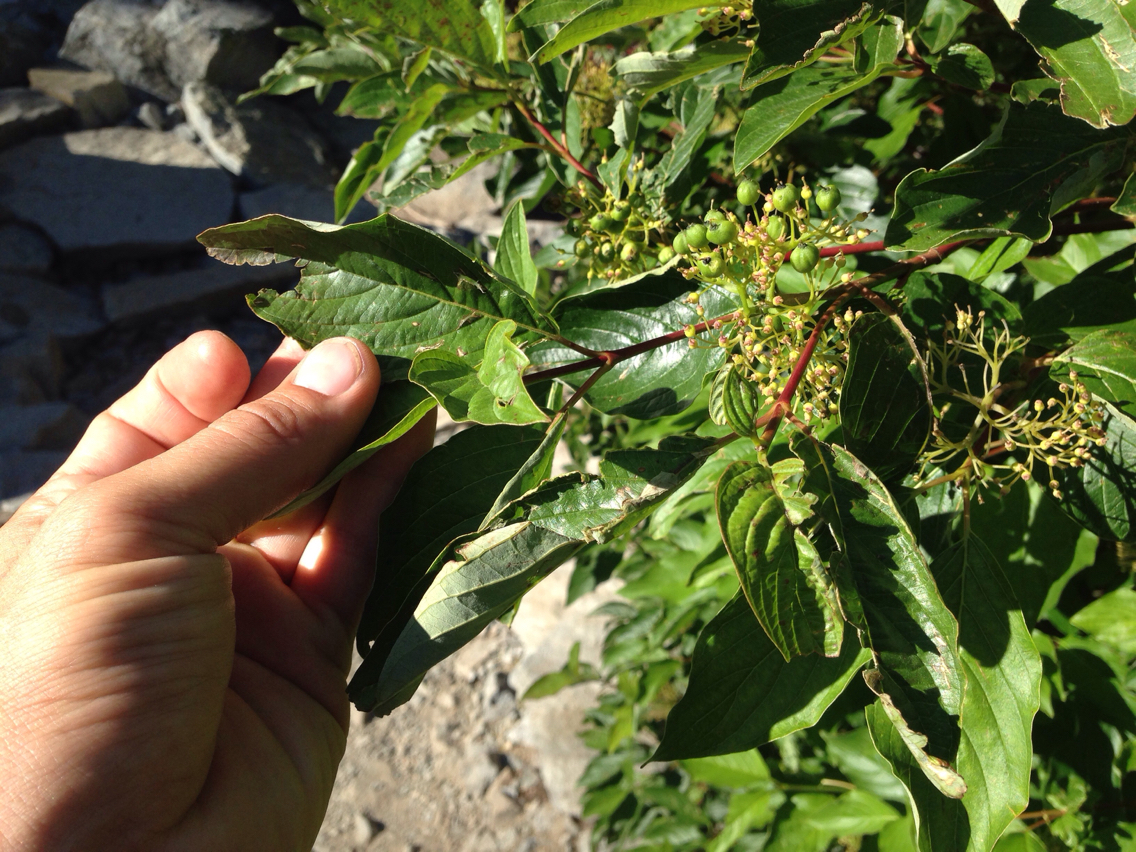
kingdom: Plantae
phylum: Tracheophyta
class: Magnoliopsida
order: Cornales
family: Cornaceae
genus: Cornus
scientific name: Cornus sericea
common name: Red-osier dogwood
